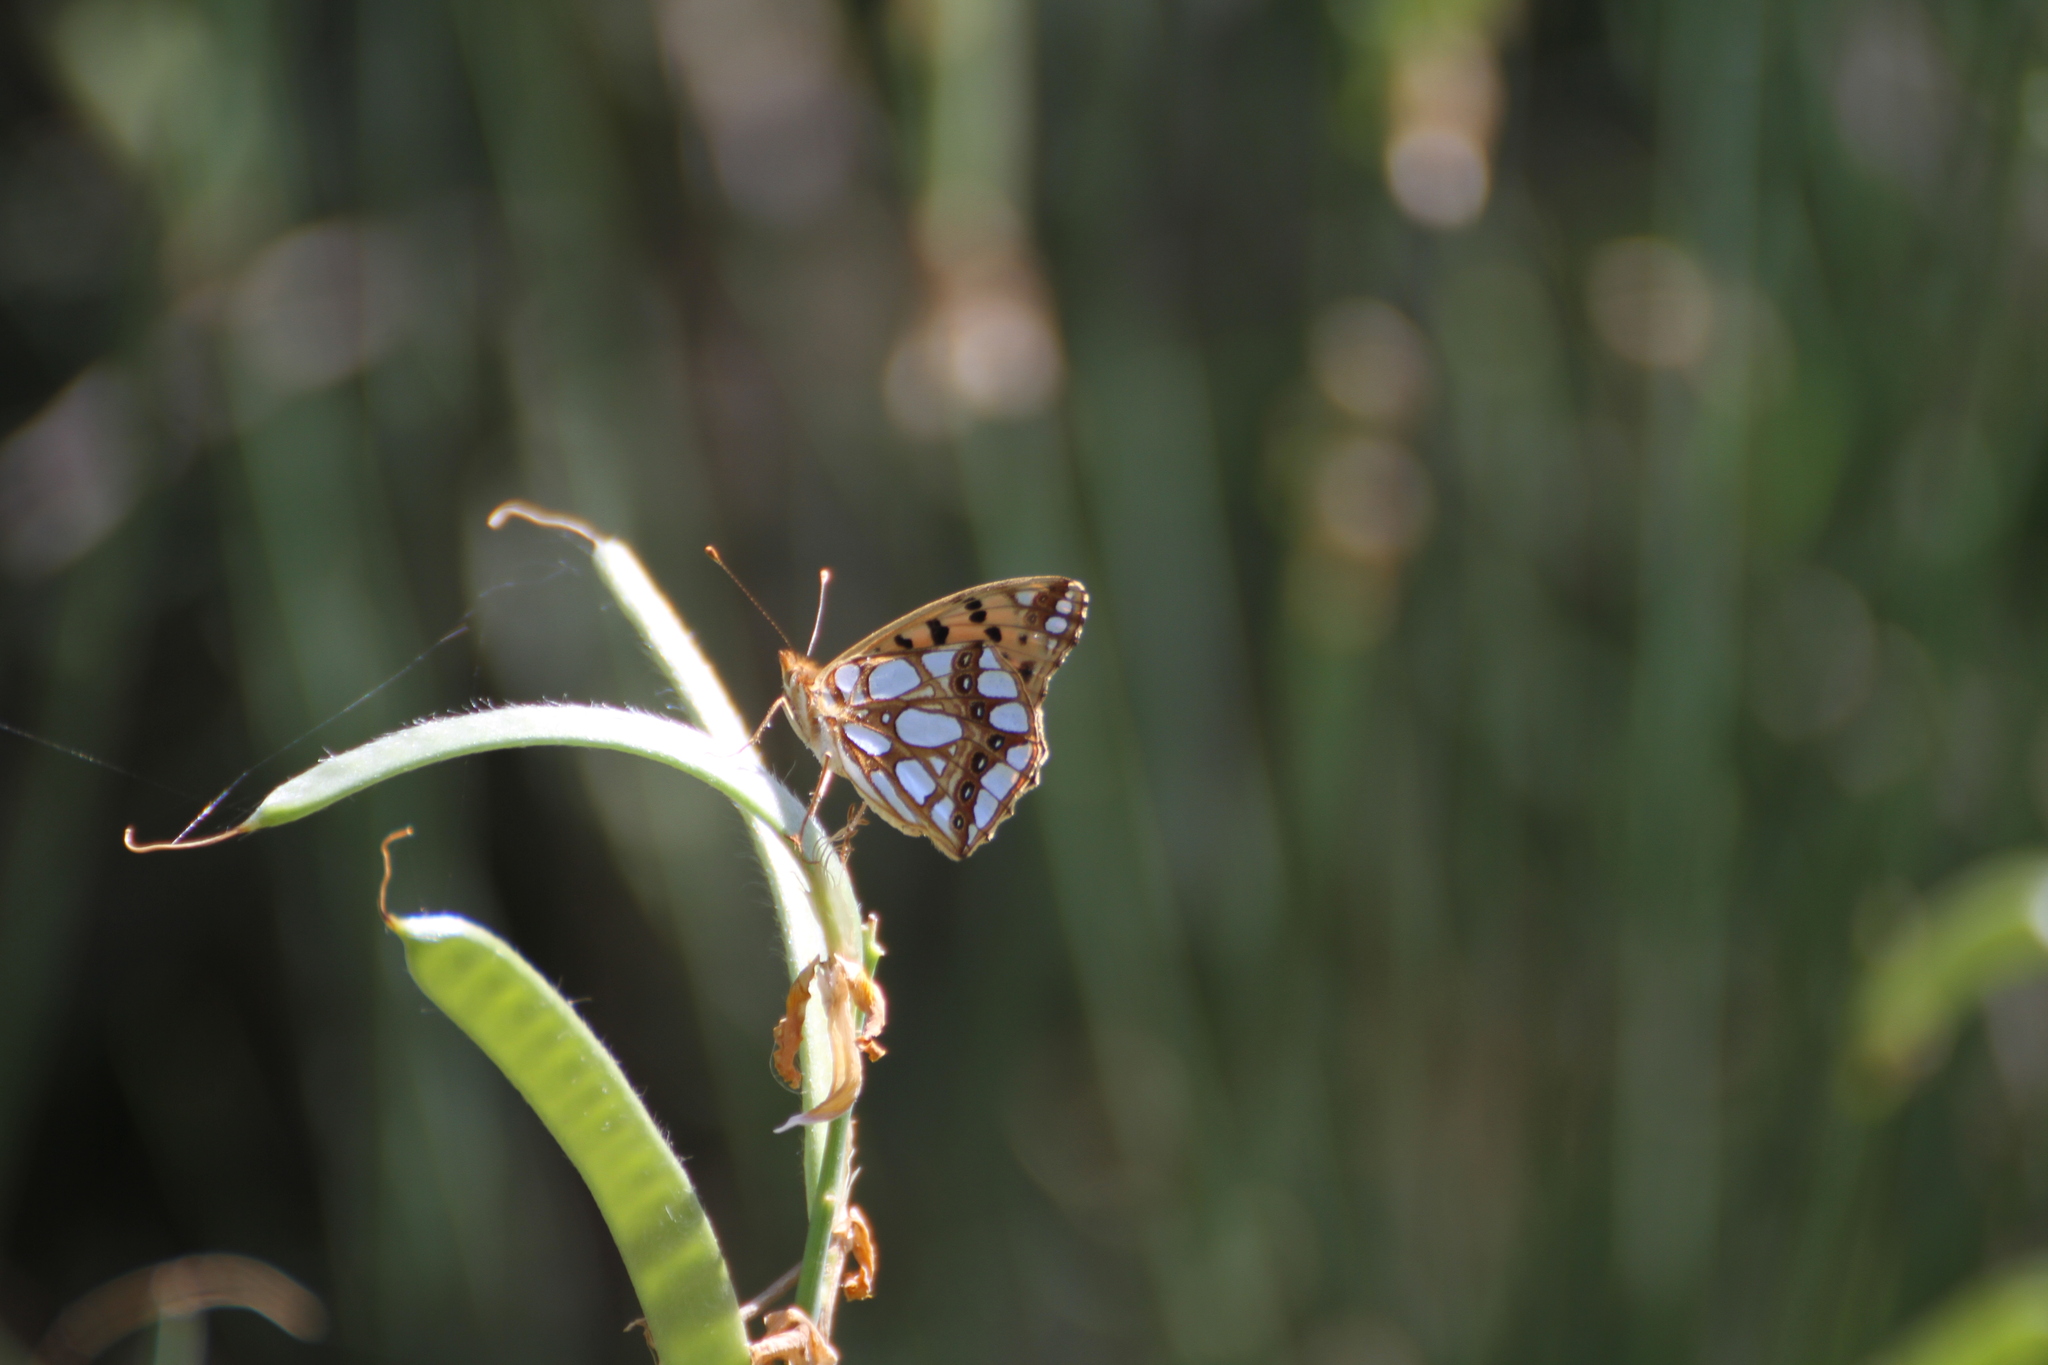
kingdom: Animalia
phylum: Arthropoda
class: Insecta
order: Lepidoptera
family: Nymphalidae
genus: Issoria
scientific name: Issoria lathonia
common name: Queen of spain fritillary
